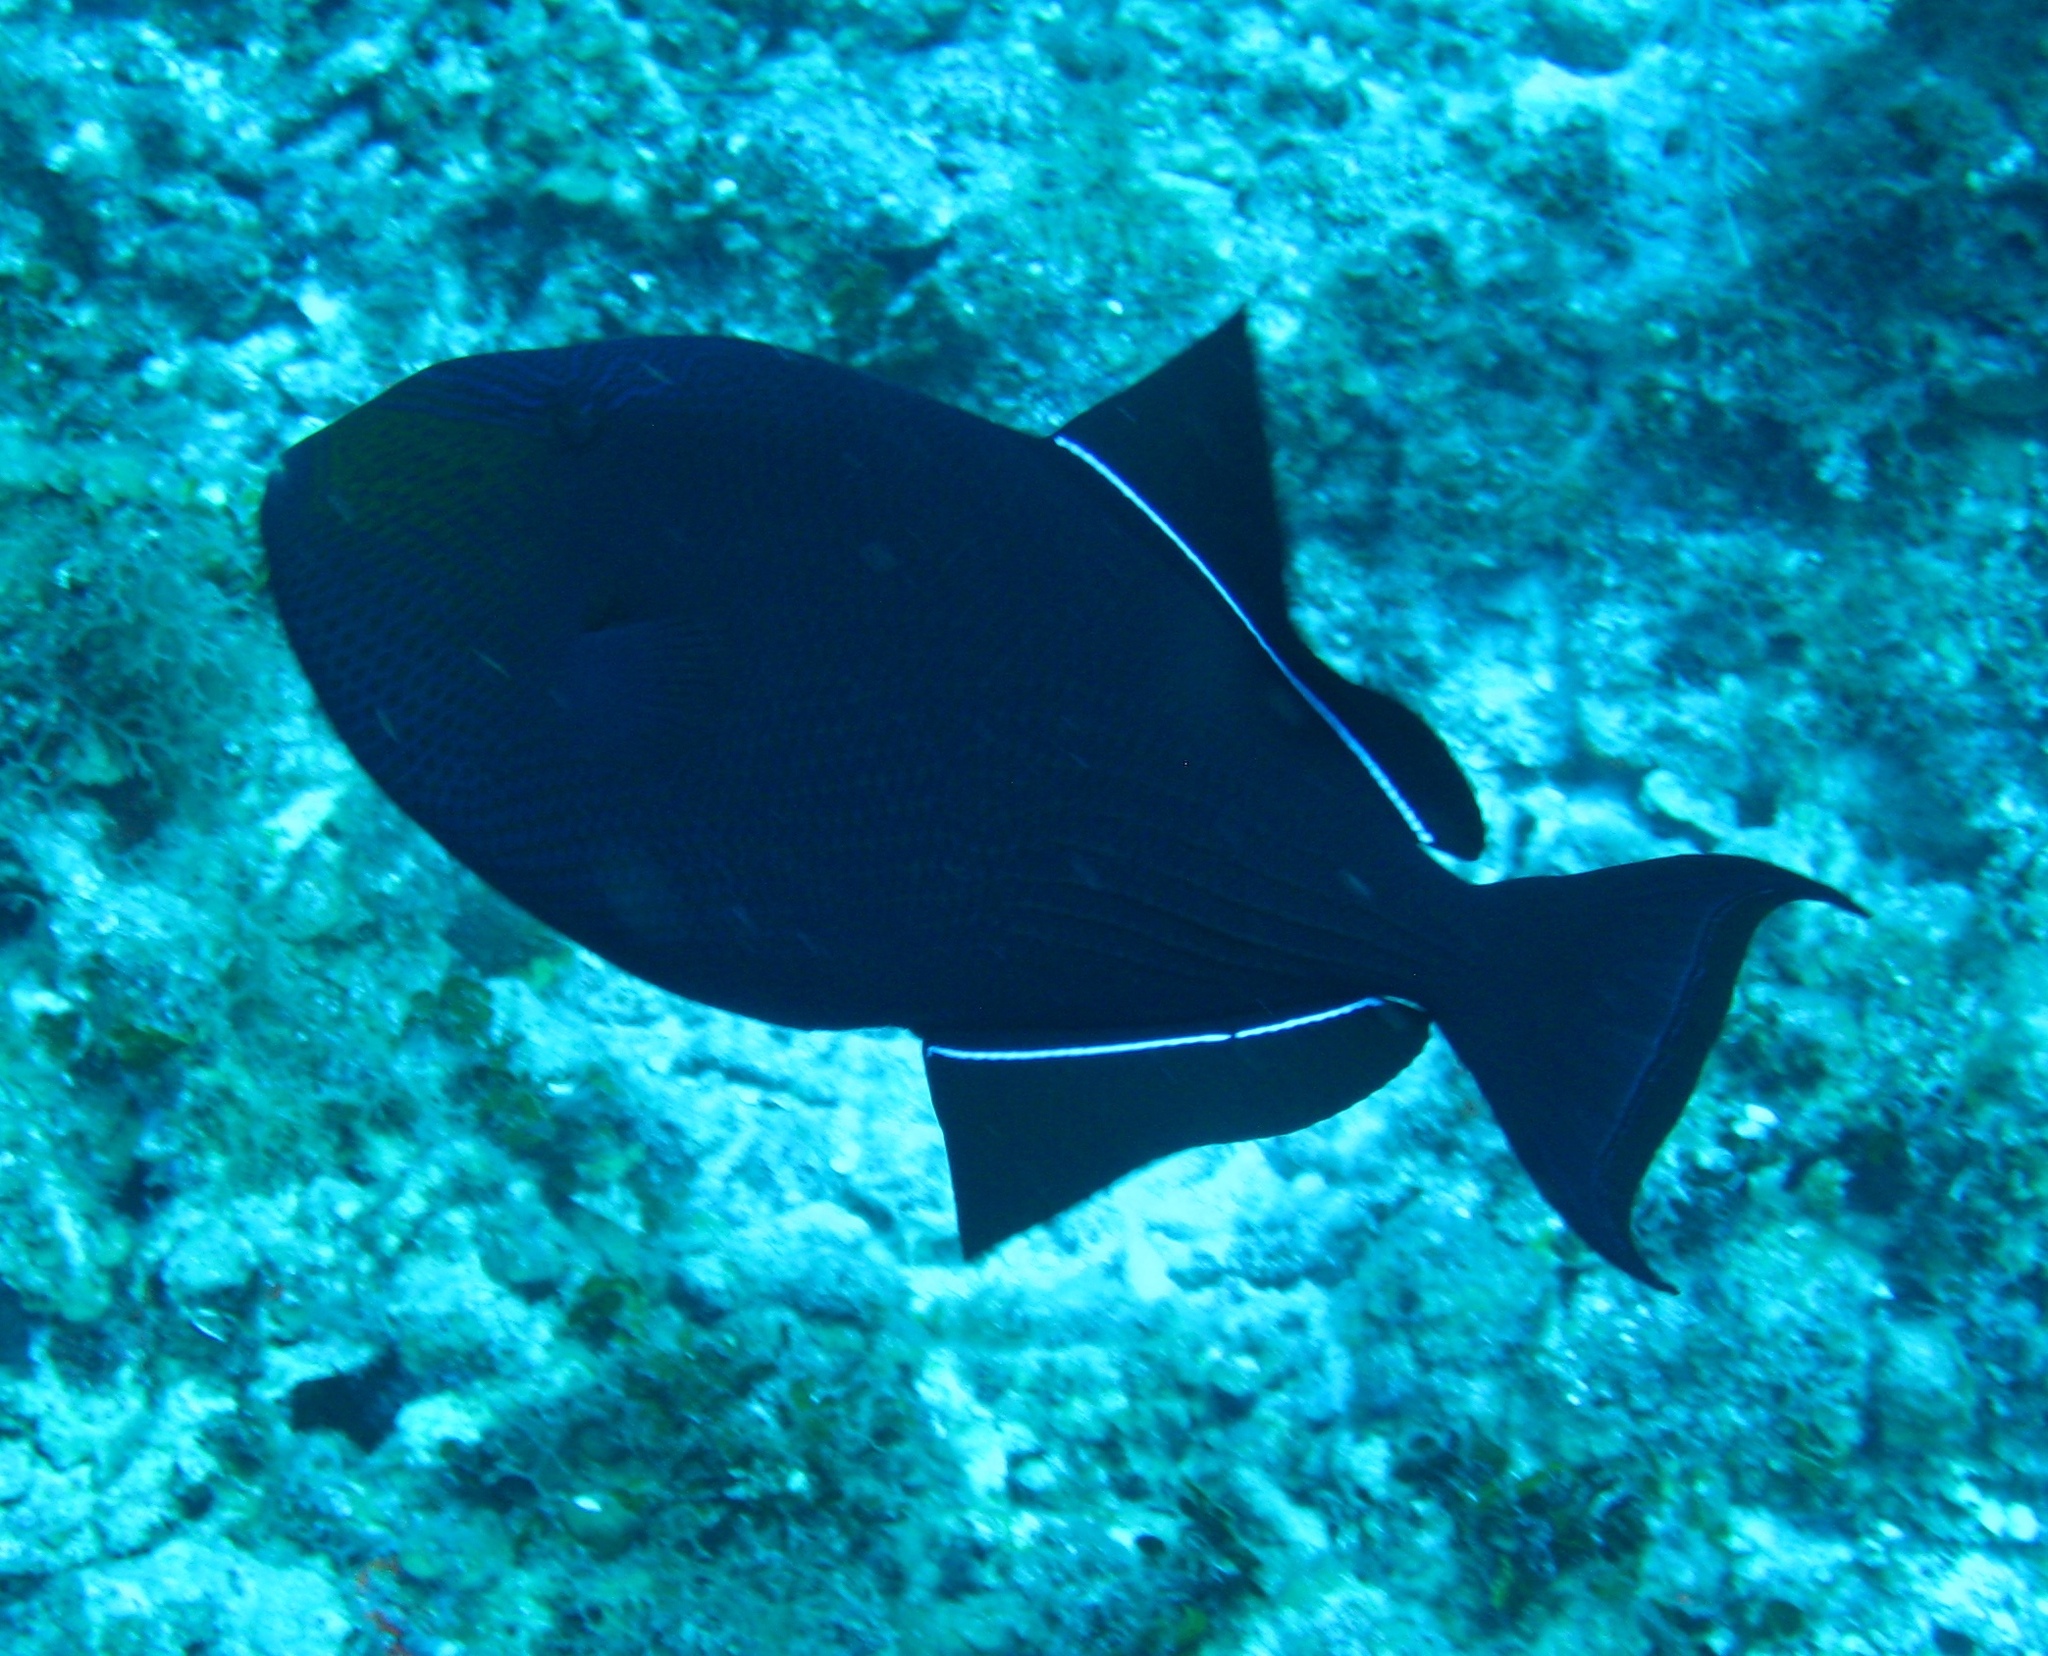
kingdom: Animalia
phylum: Chordata
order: Tetraodontiformes
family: Balistidae
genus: Melichthys
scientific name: Melichthys niger
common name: Black durgon
